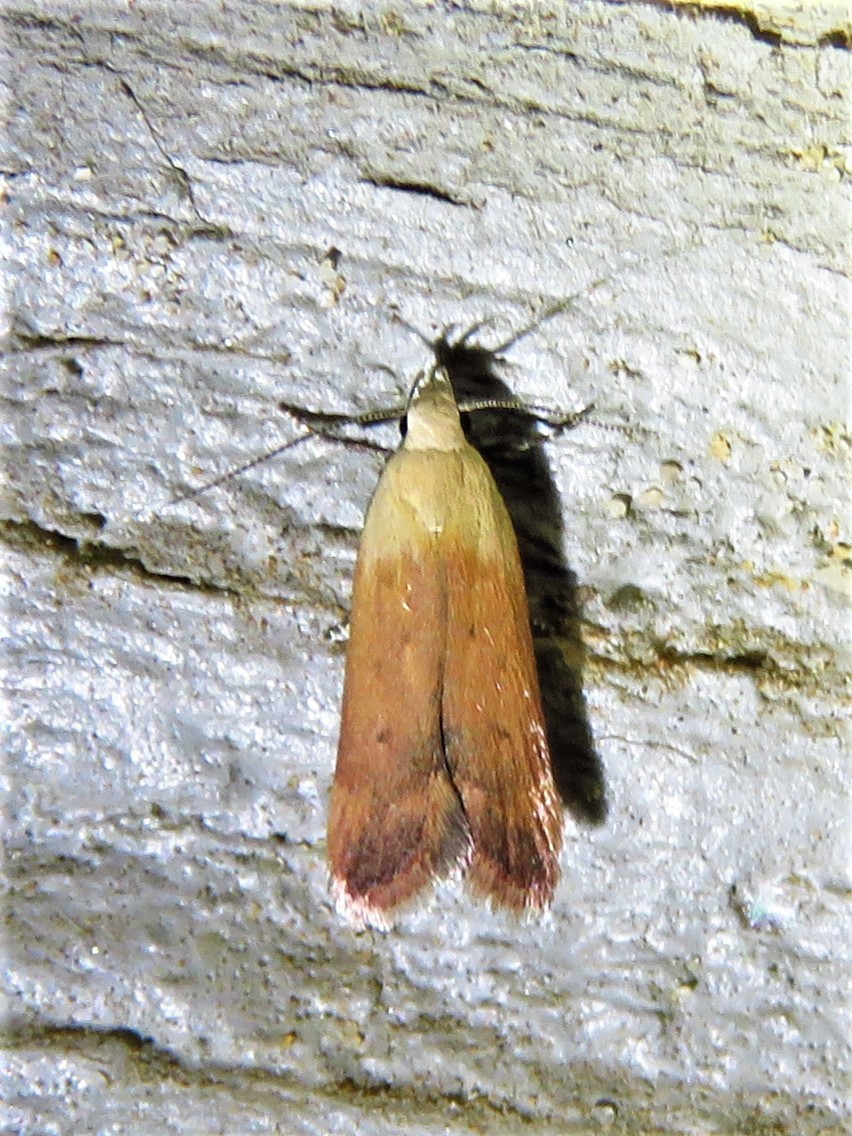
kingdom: Animalia
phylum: Arthropoda
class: Insecta
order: Lepidoptera
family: Gelechiidae
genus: Anacampsis
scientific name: Anacampsis fullonella
